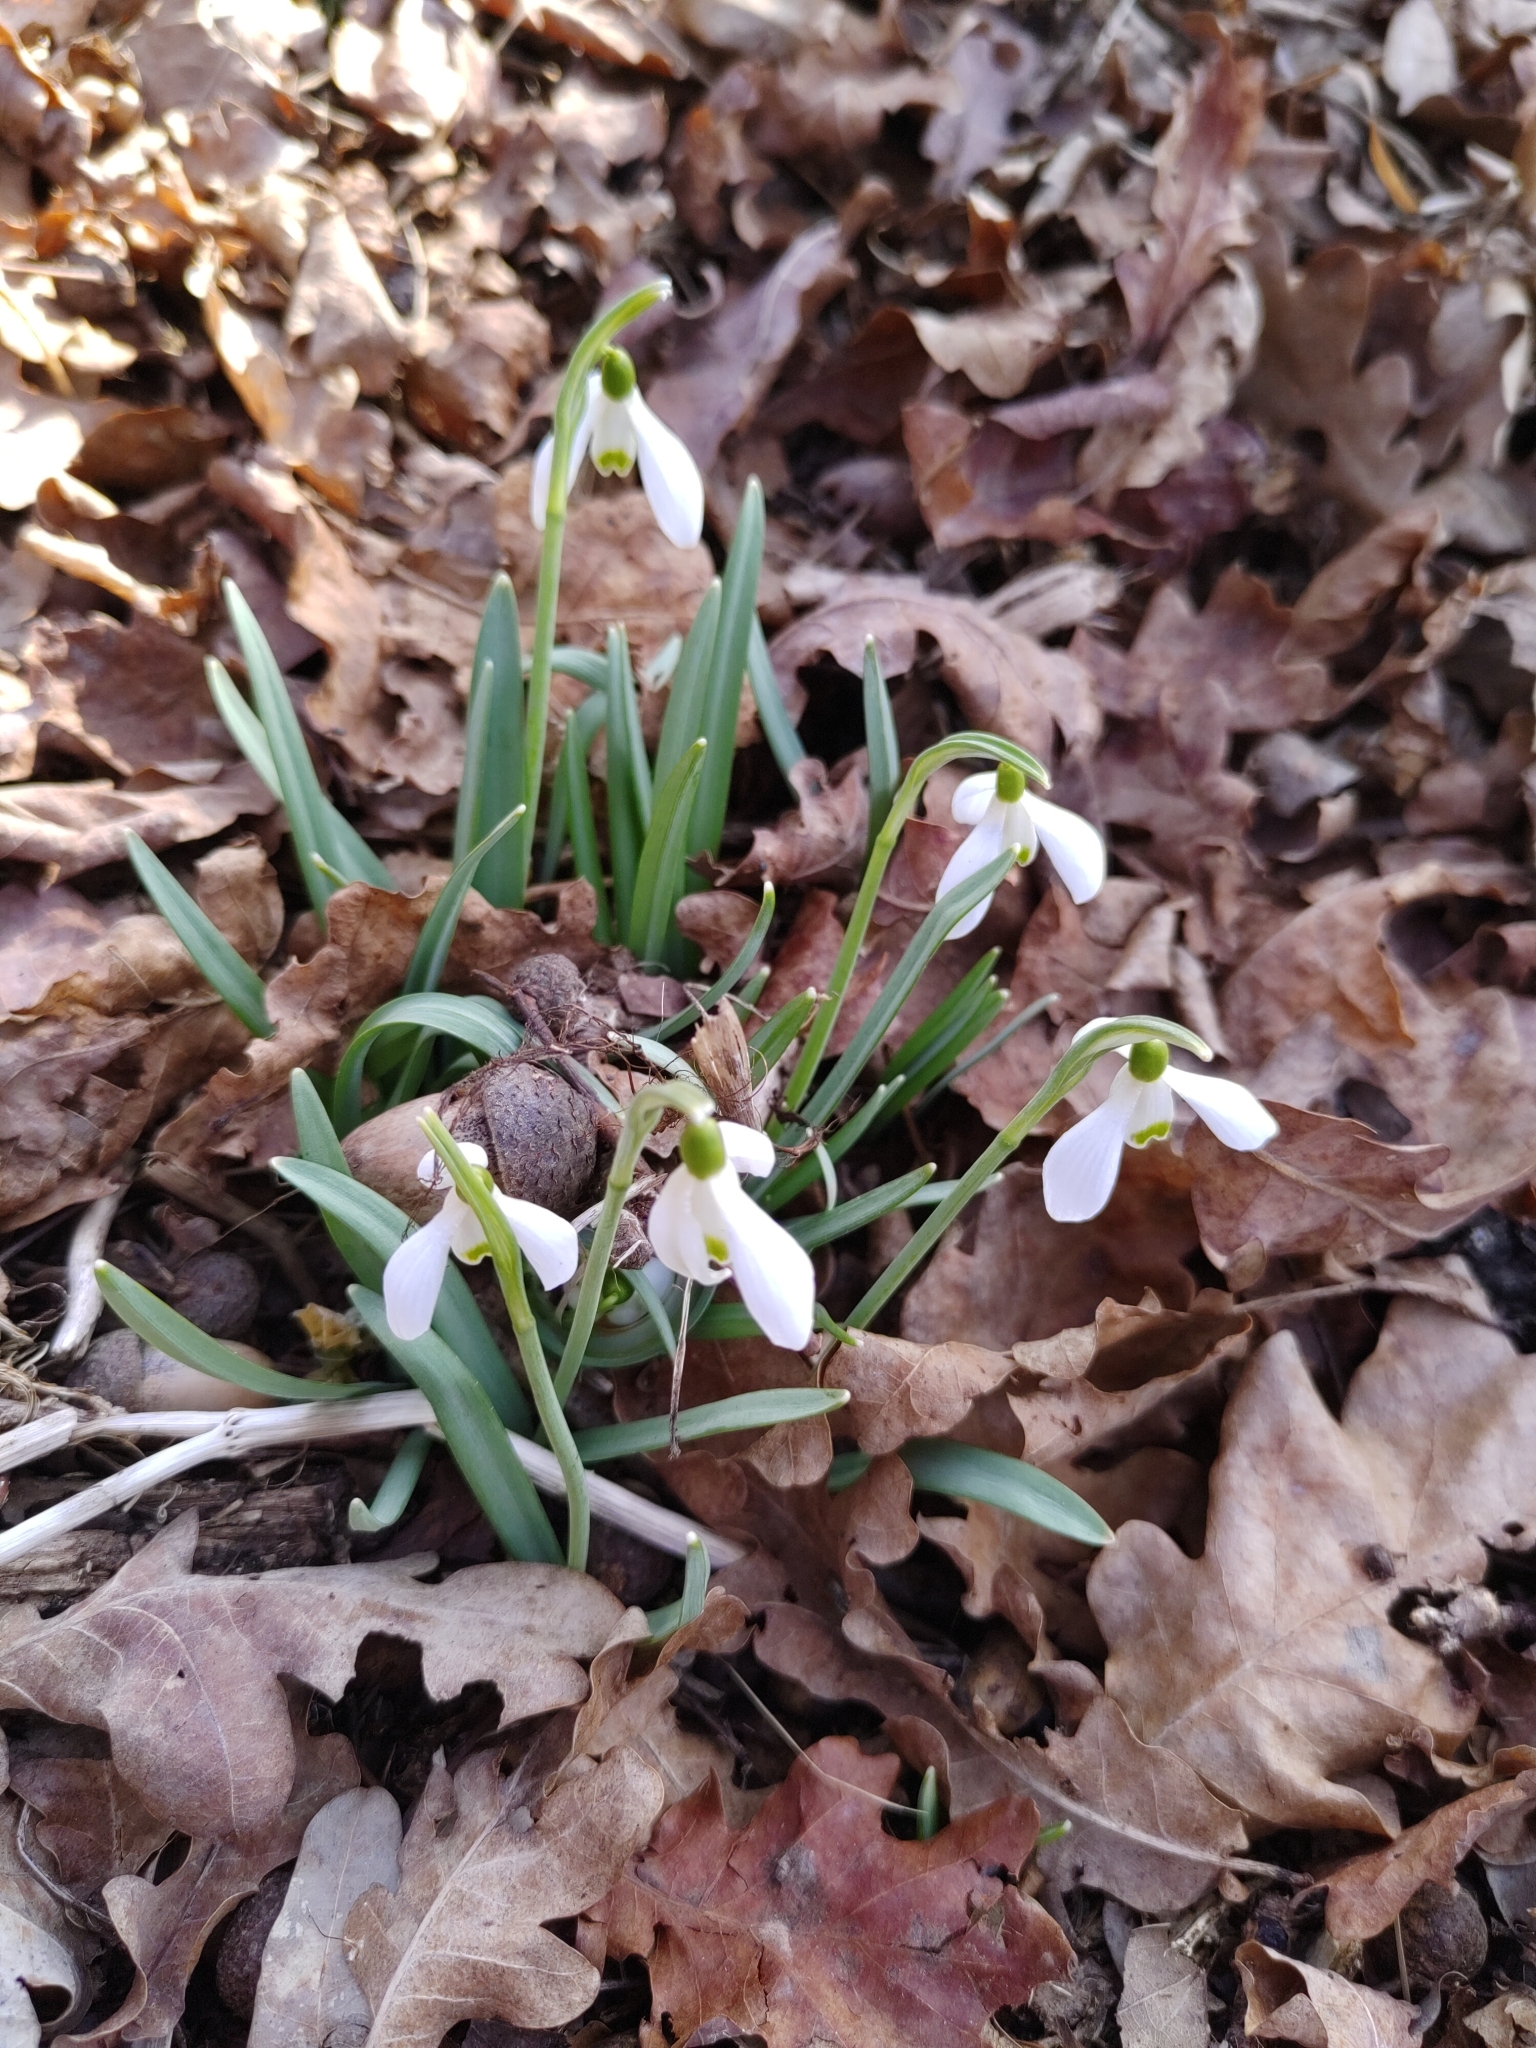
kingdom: Plantae
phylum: Tracheophyta
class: Liliopsida
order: Asparagales
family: Amaryllidaceae
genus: Galanthus
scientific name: Galanthus nivalis
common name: Snowdrop
